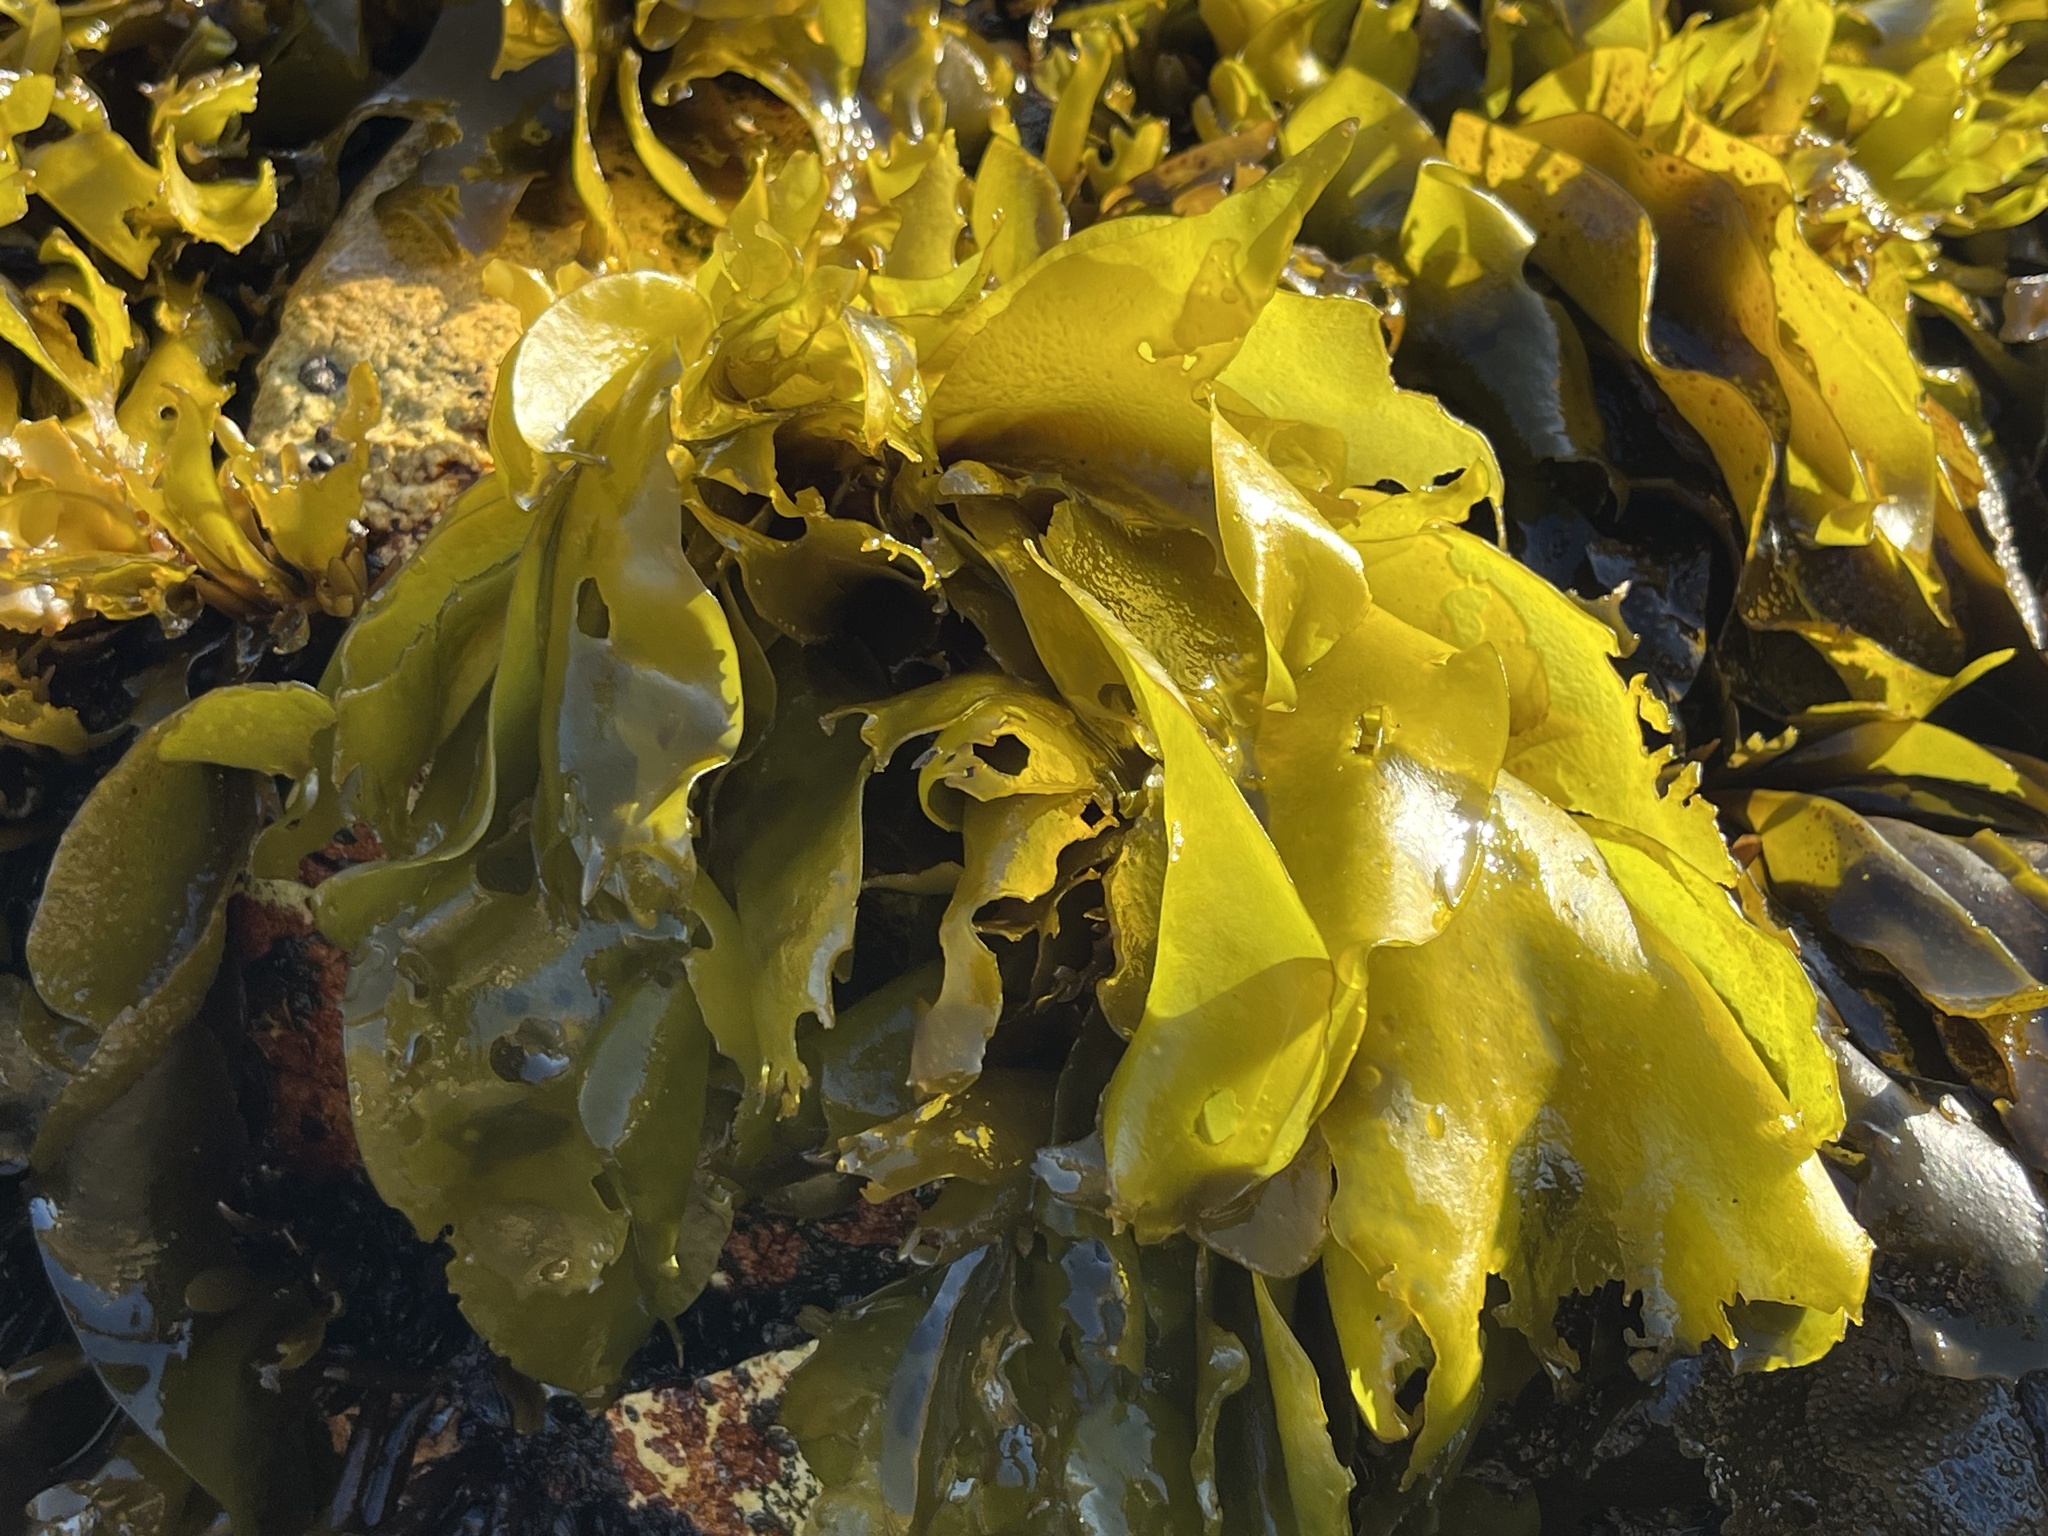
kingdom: Plantae
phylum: Rhodophyta
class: Florideophyceae
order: Gigartinales
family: Gigartinaceae
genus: Mazzaella
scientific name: Mazzaella laminarioides
